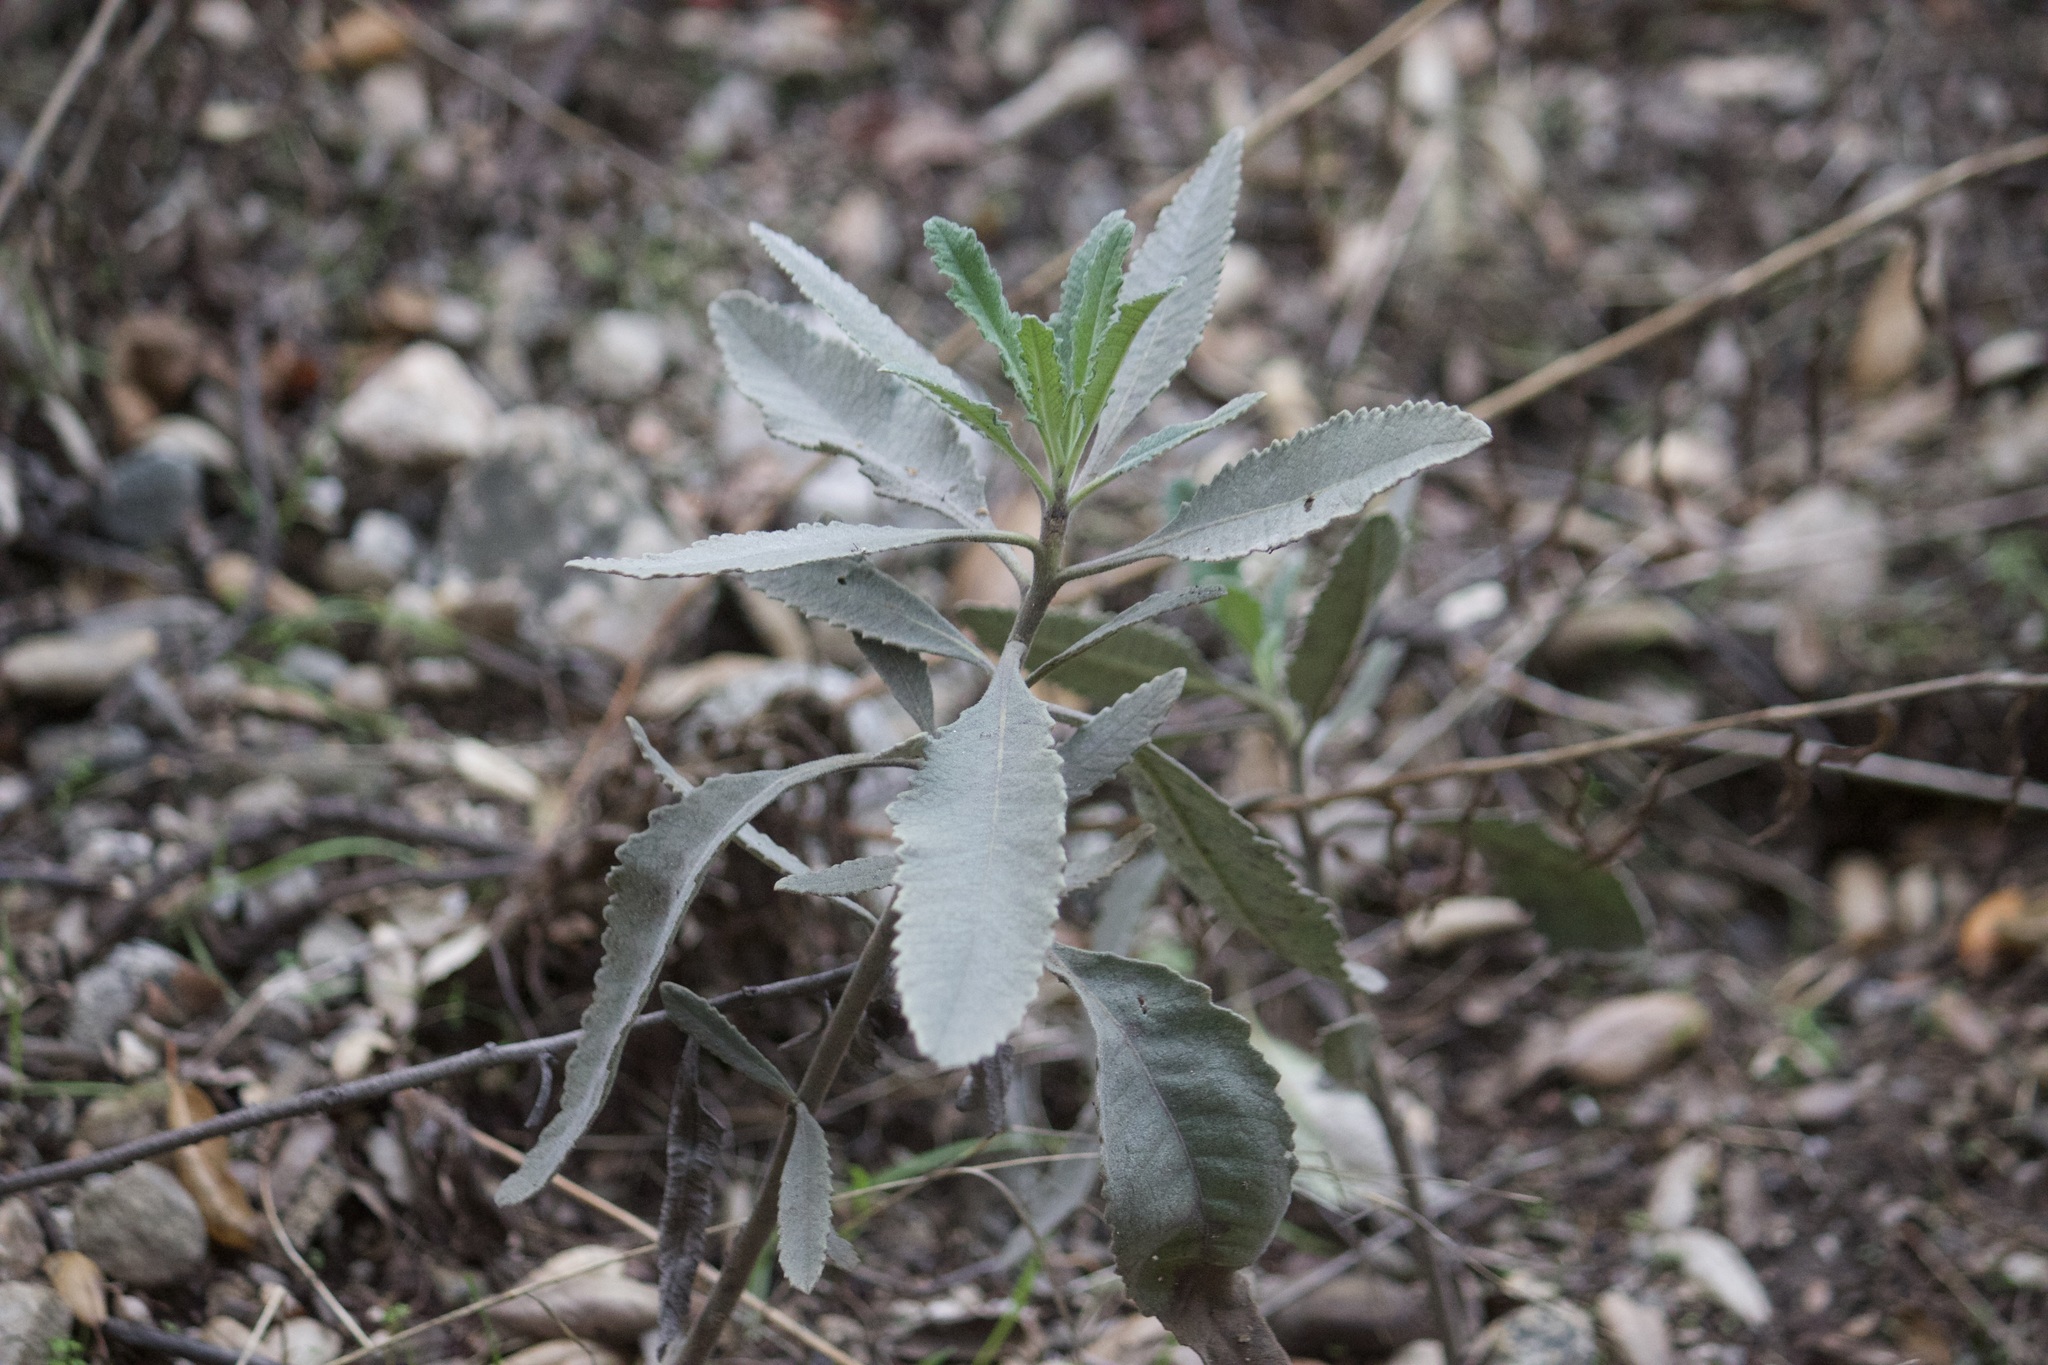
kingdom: Plantae
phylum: Tracheophyta
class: Magnoliopsida
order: Boraginales
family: Namaceae
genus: Eriodictyon
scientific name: Eriodictyon crassifolium
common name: Thick-leaf yerba-santa
